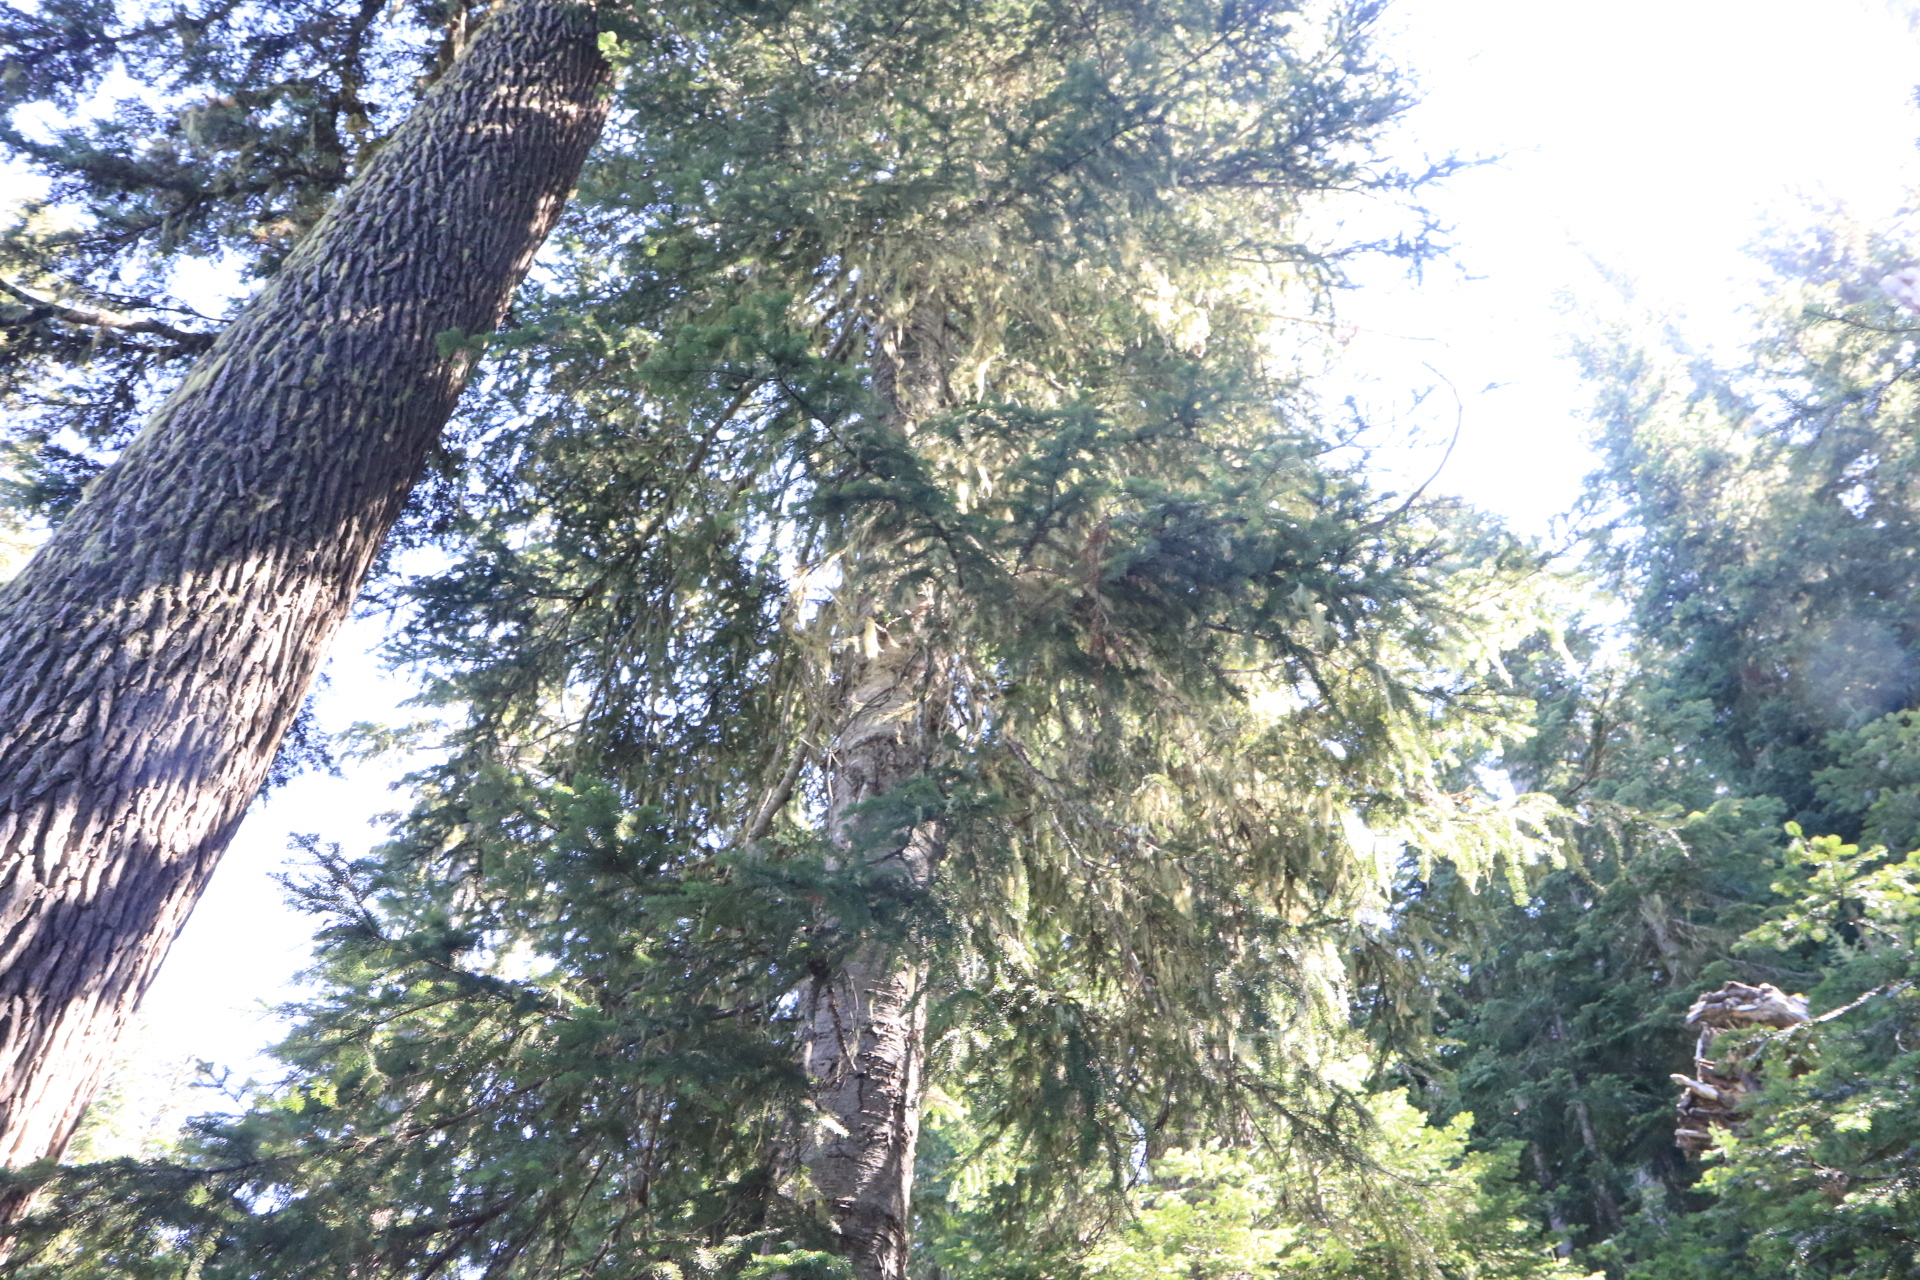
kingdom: Plantae
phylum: Tracheophyta
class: Pinopsida
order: Pinales
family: Pinaceae
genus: Abies
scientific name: Abies amabilis
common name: Pacific silver fir
